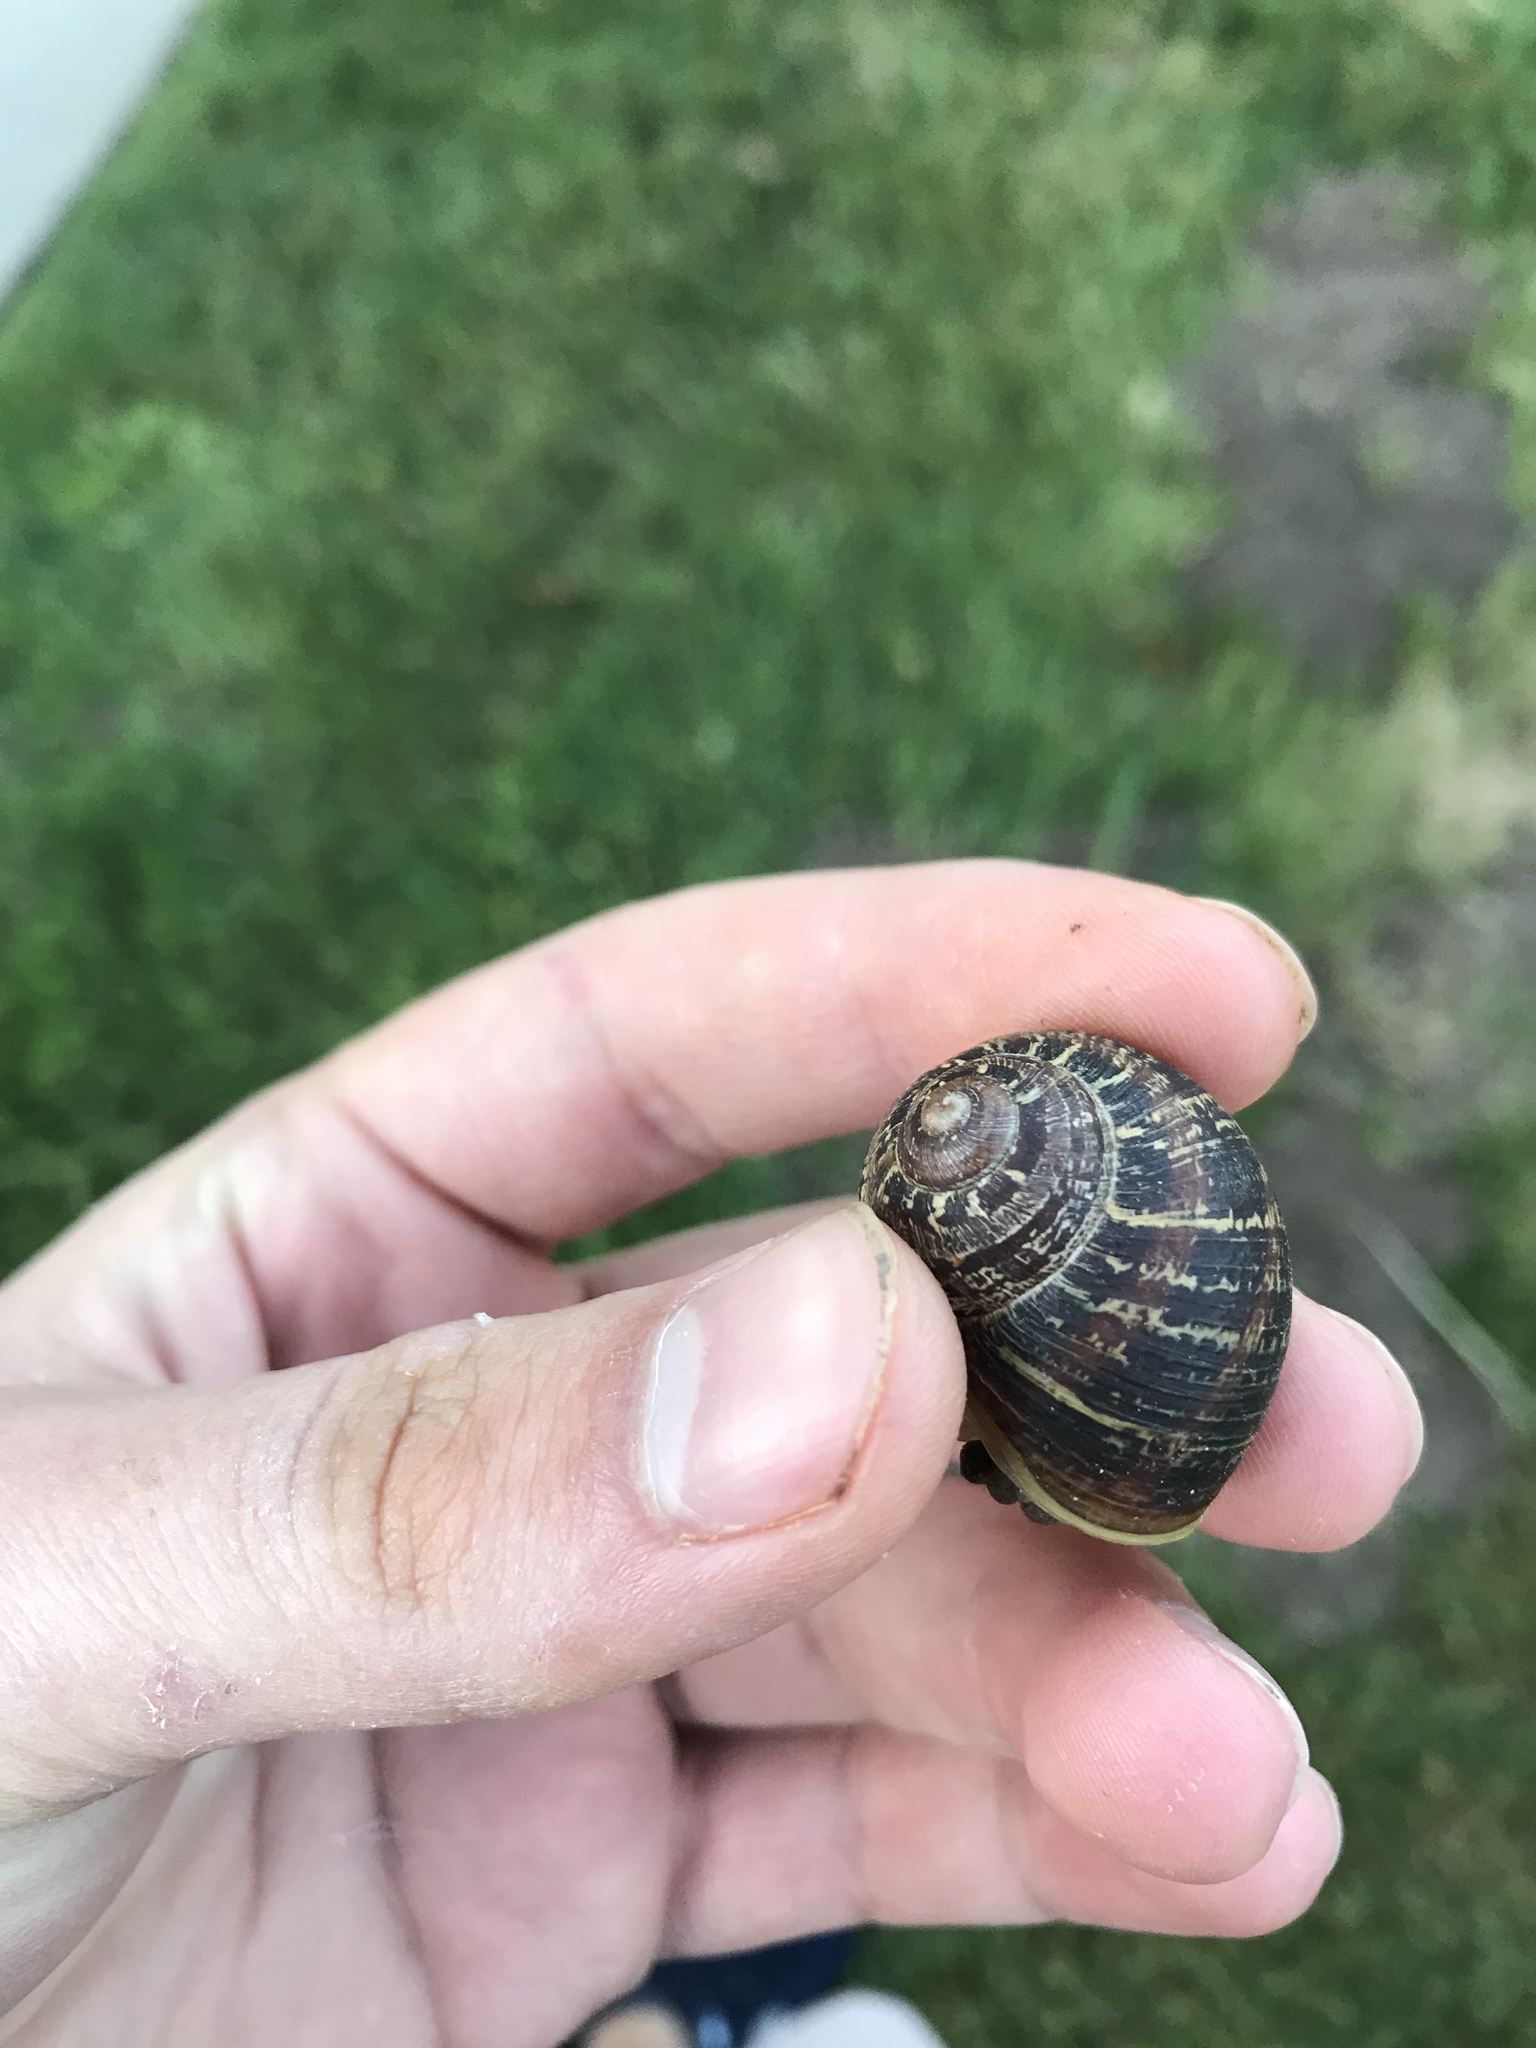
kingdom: Animalia
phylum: Mollusca
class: Gastropoda
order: Stylommatophora
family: Helicidae
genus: Cornu
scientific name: Cornu aspersum
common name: Brown garden snail
